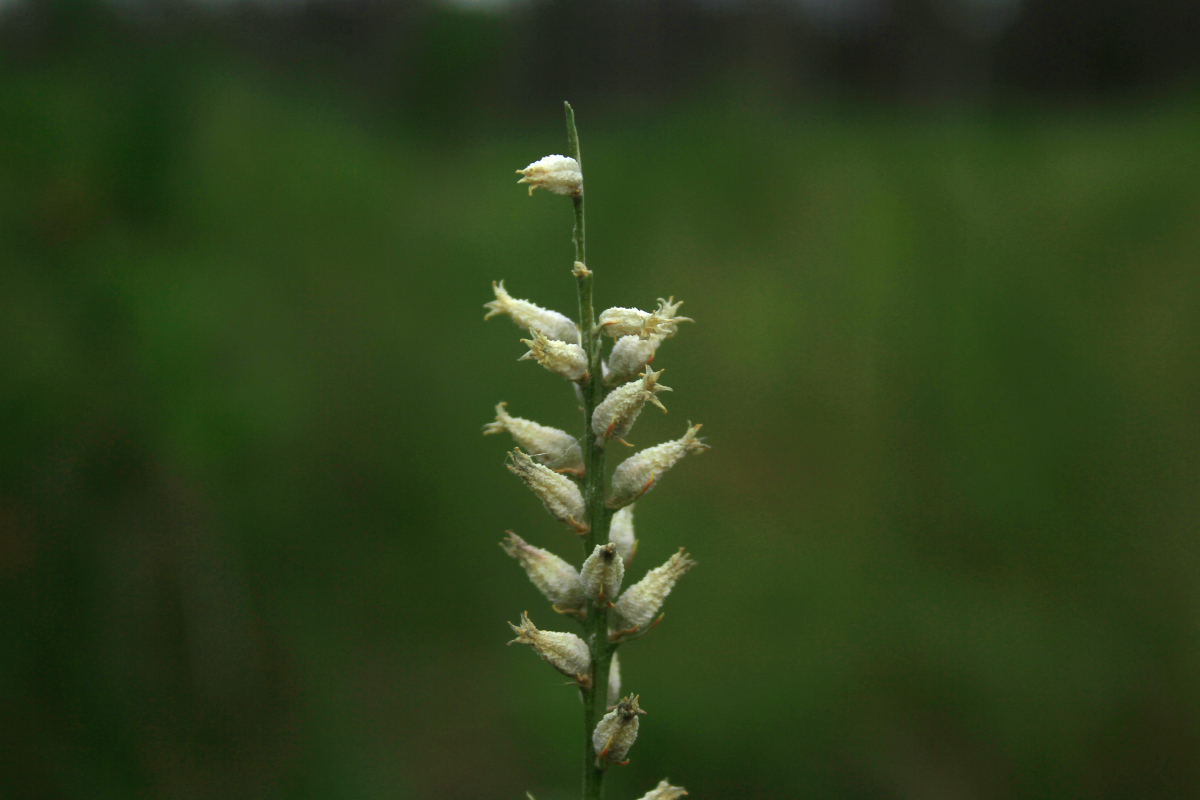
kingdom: Plantae
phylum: Tracheophyta
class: Liliopsida
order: Dioscoreales
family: Nartheciaceae
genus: Aletris
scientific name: Aletris farinosa
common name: Colicroot
